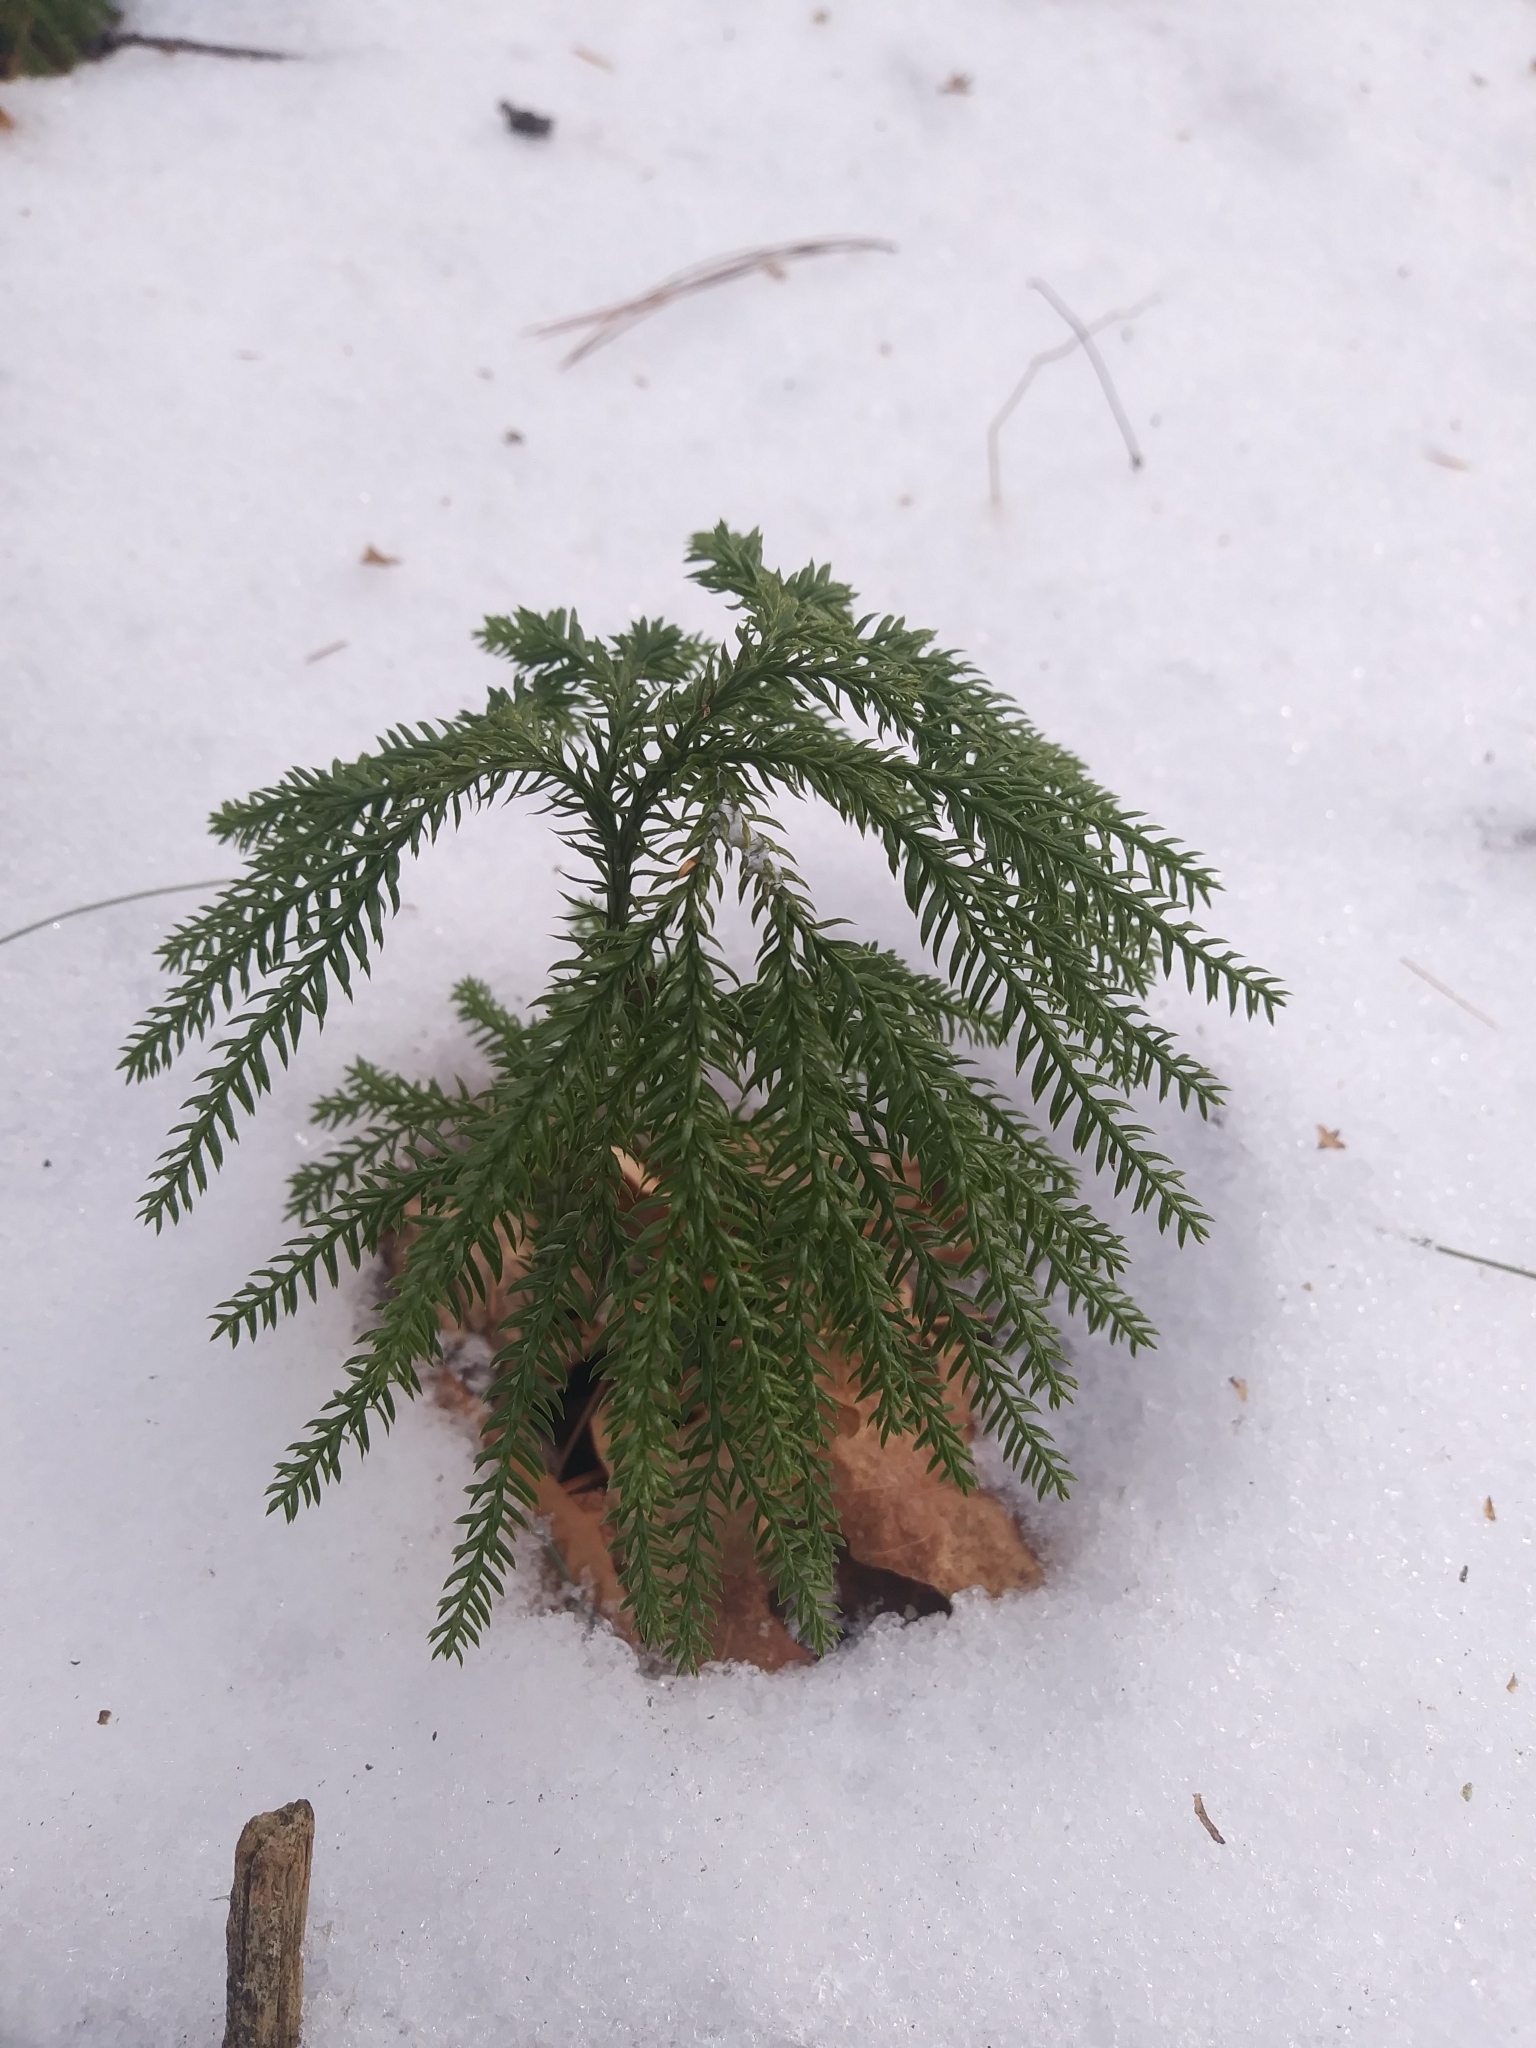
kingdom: Plantae
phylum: Tracheophyta
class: Lycopodiopsida
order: Lycopodiales
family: Lycopodiaceae
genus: Dendrolycopodium
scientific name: Dendrolycopodium dendroideum
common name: Northern tree-clubmoss
